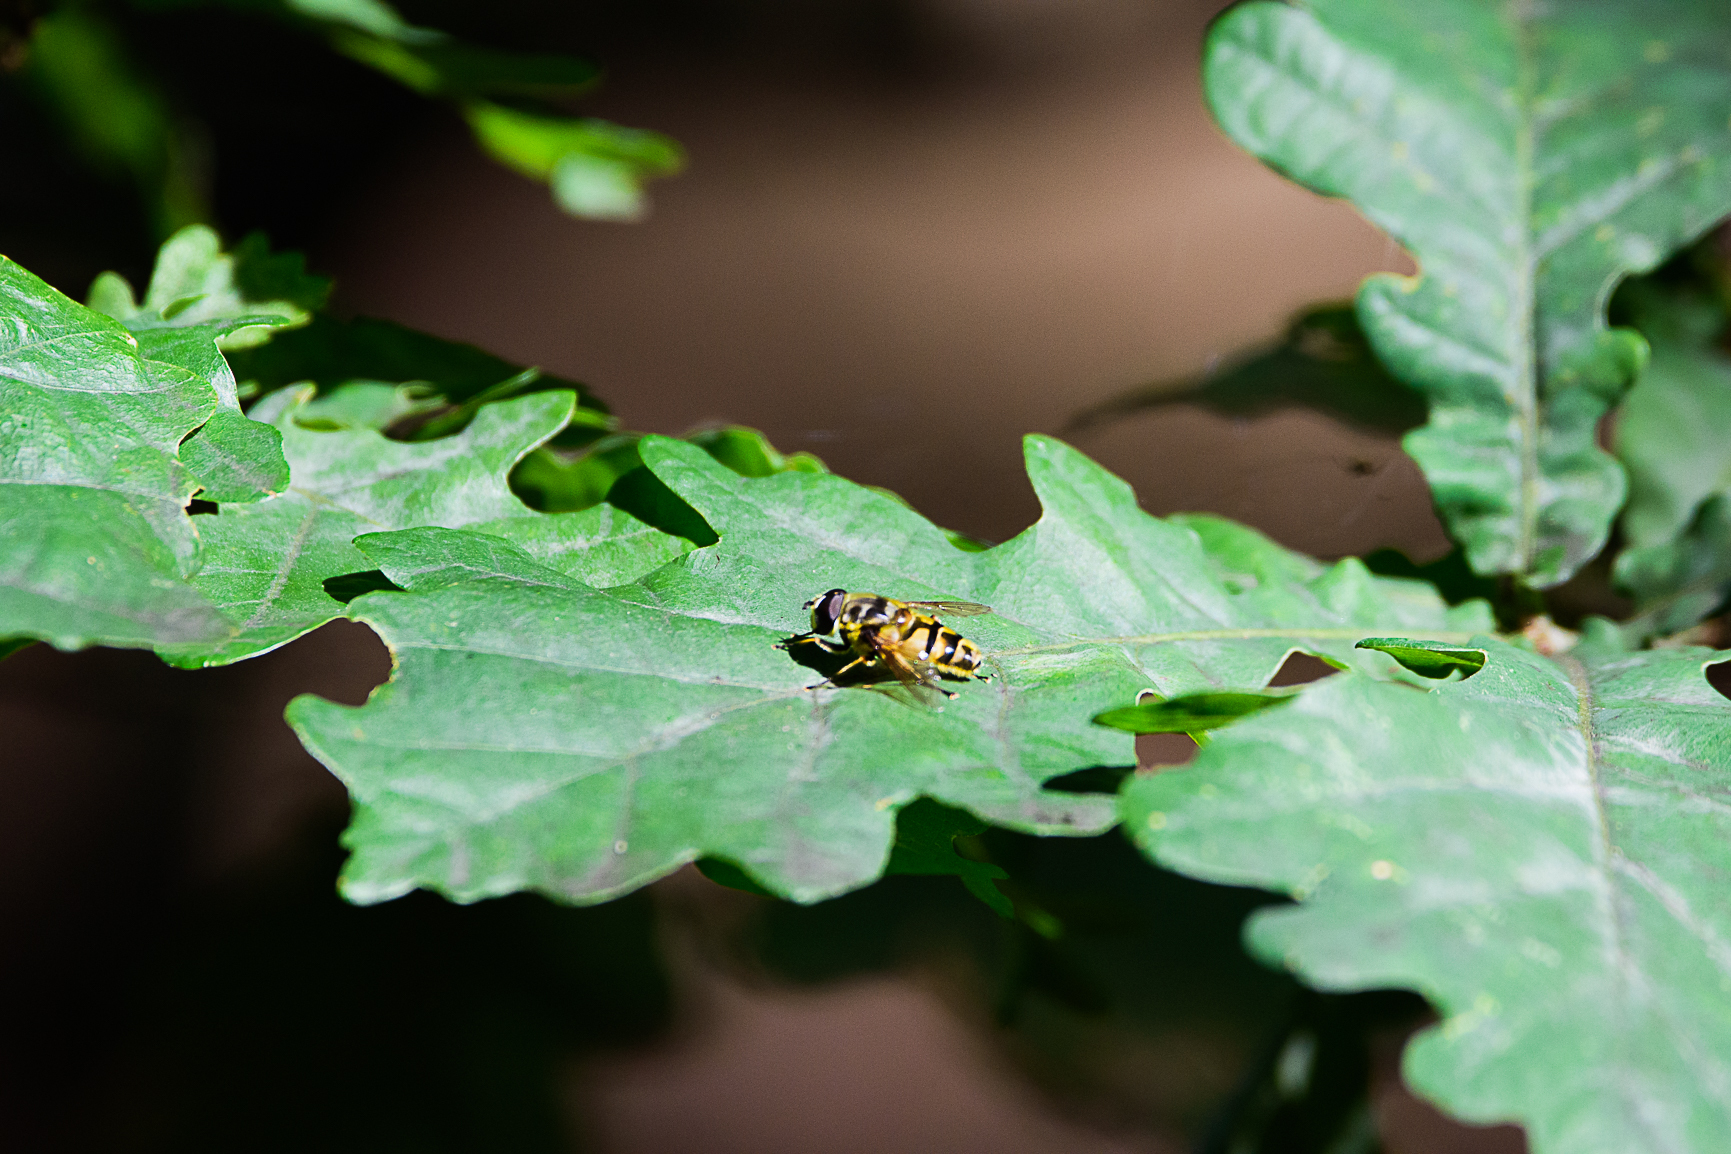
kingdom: Animalia
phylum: Arthropoda
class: Insecta
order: Diptera
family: Syrphidae
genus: Myathropa
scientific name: Myathropa florea
